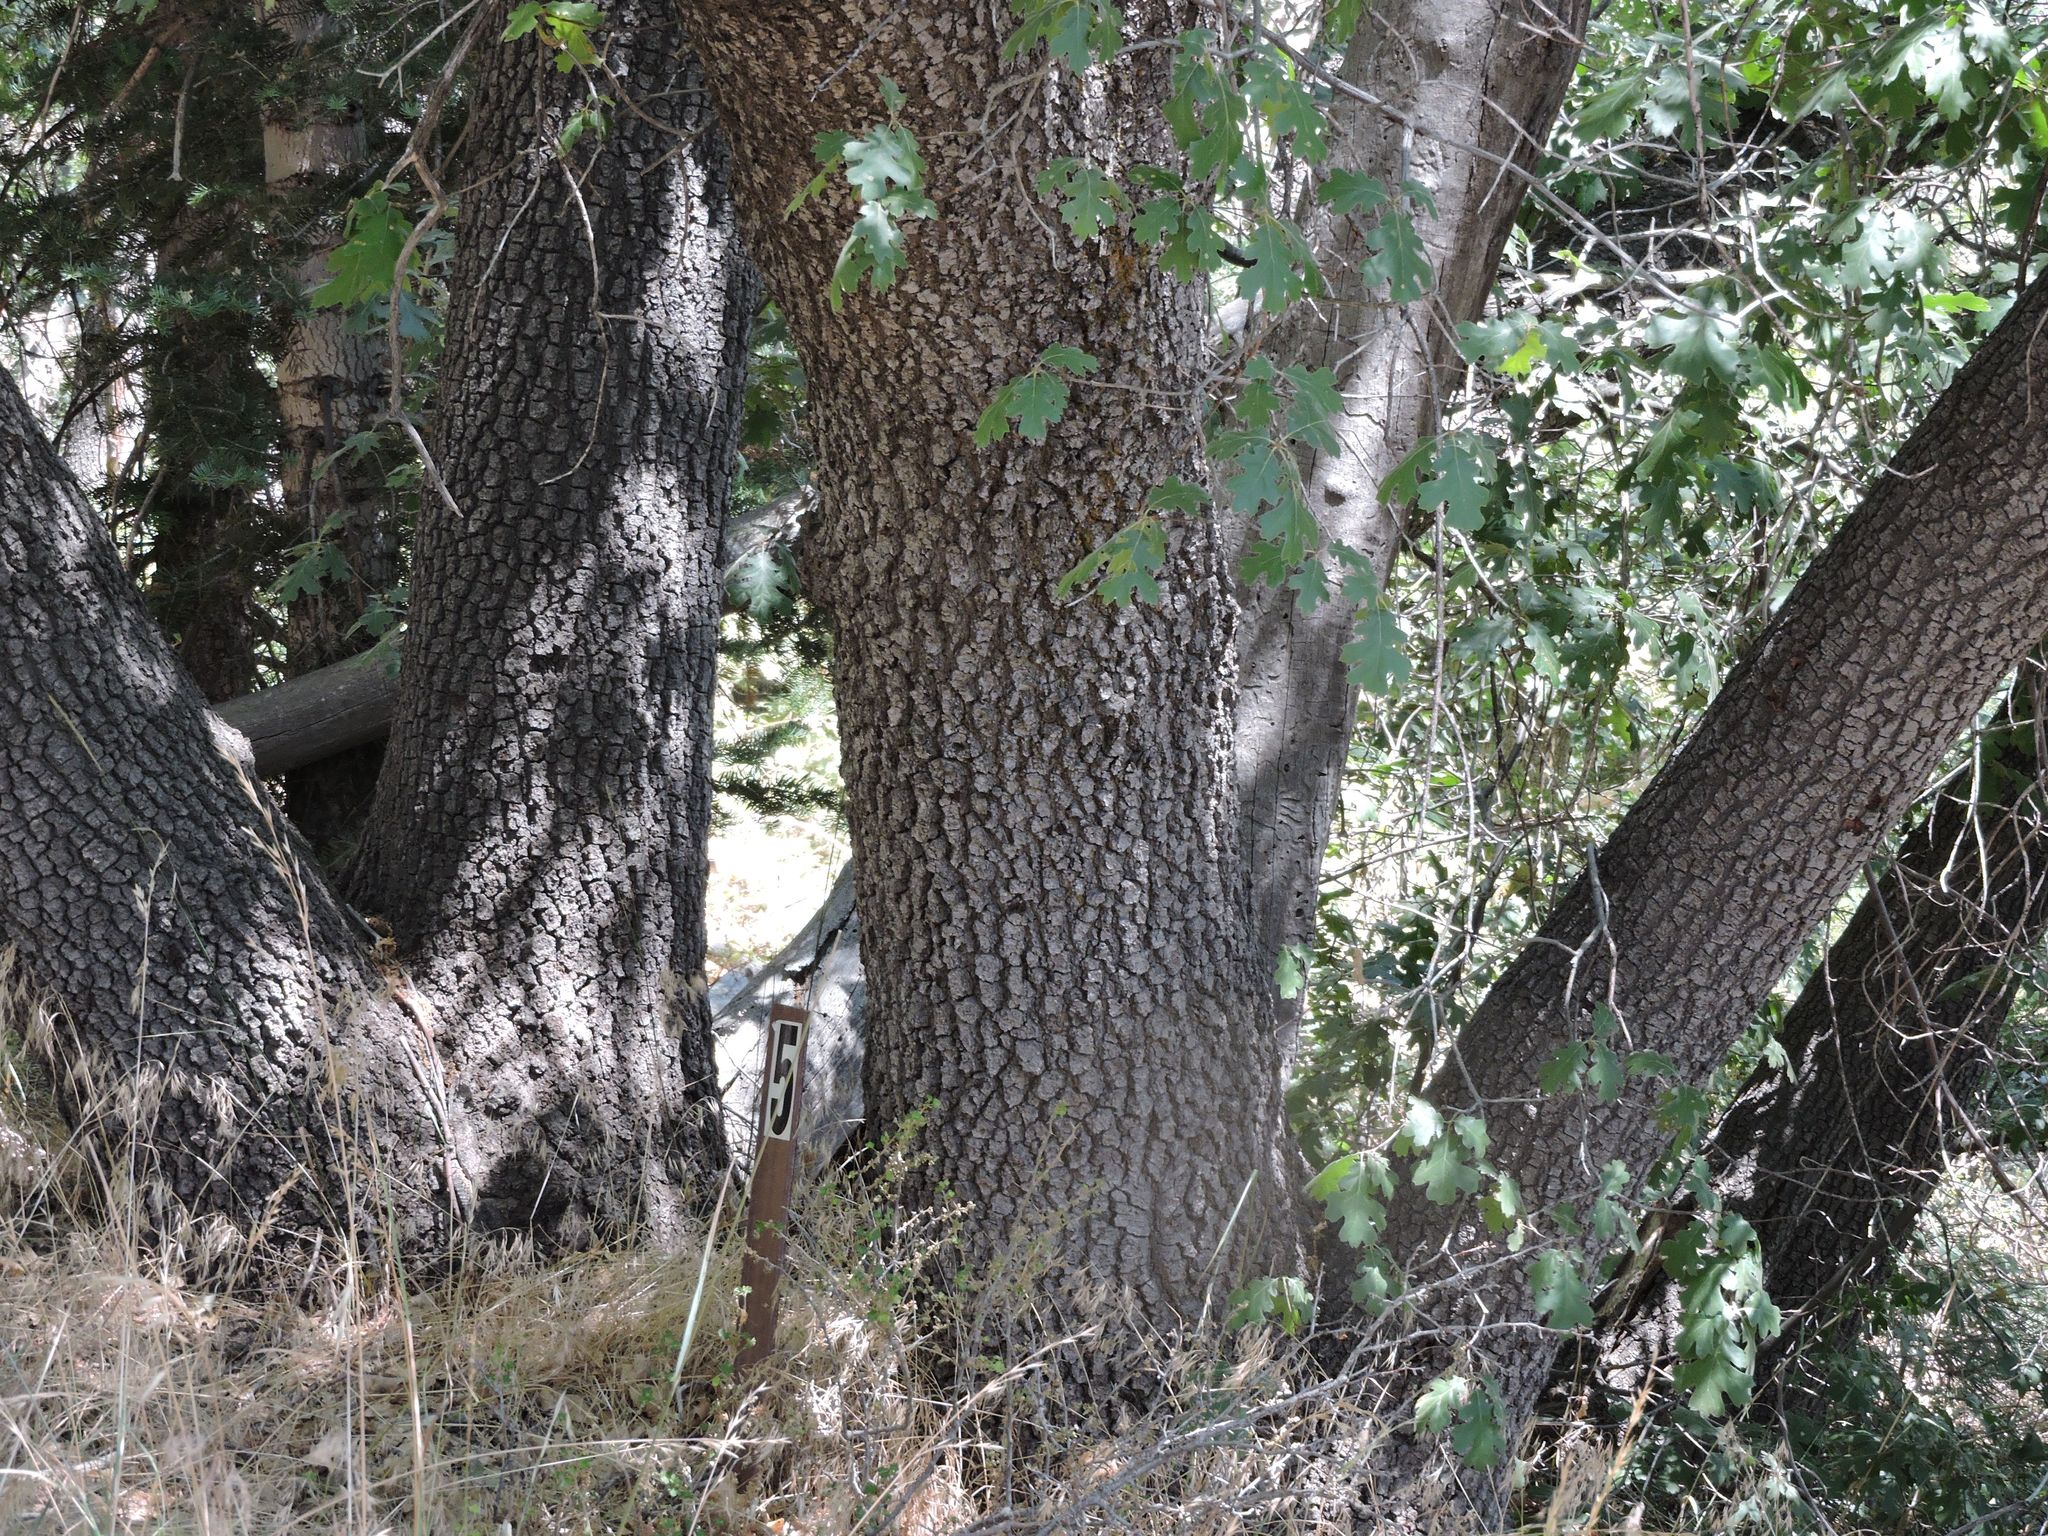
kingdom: Plantae
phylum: Tracheophyta
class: Magnoliopsida
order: Fagales
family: Fagaceae
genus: Quercus
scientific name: Quercus kelloggii
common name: California black oak
